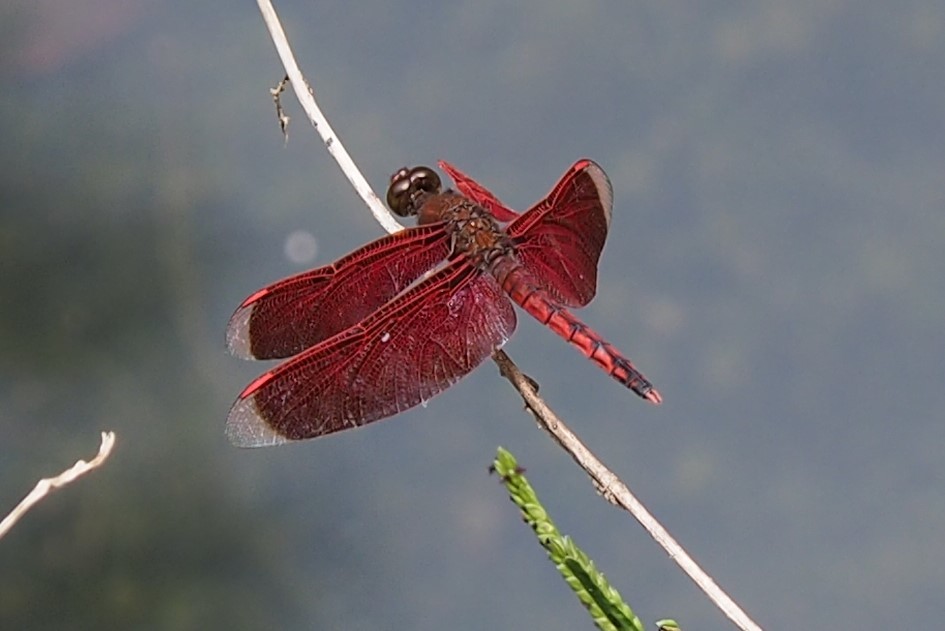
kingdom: Animalia
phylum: Arthropoda
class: Insecta
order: Odonata
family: Libellulidae
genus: Neurothemis
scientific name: Neurothemis taiwanensis
